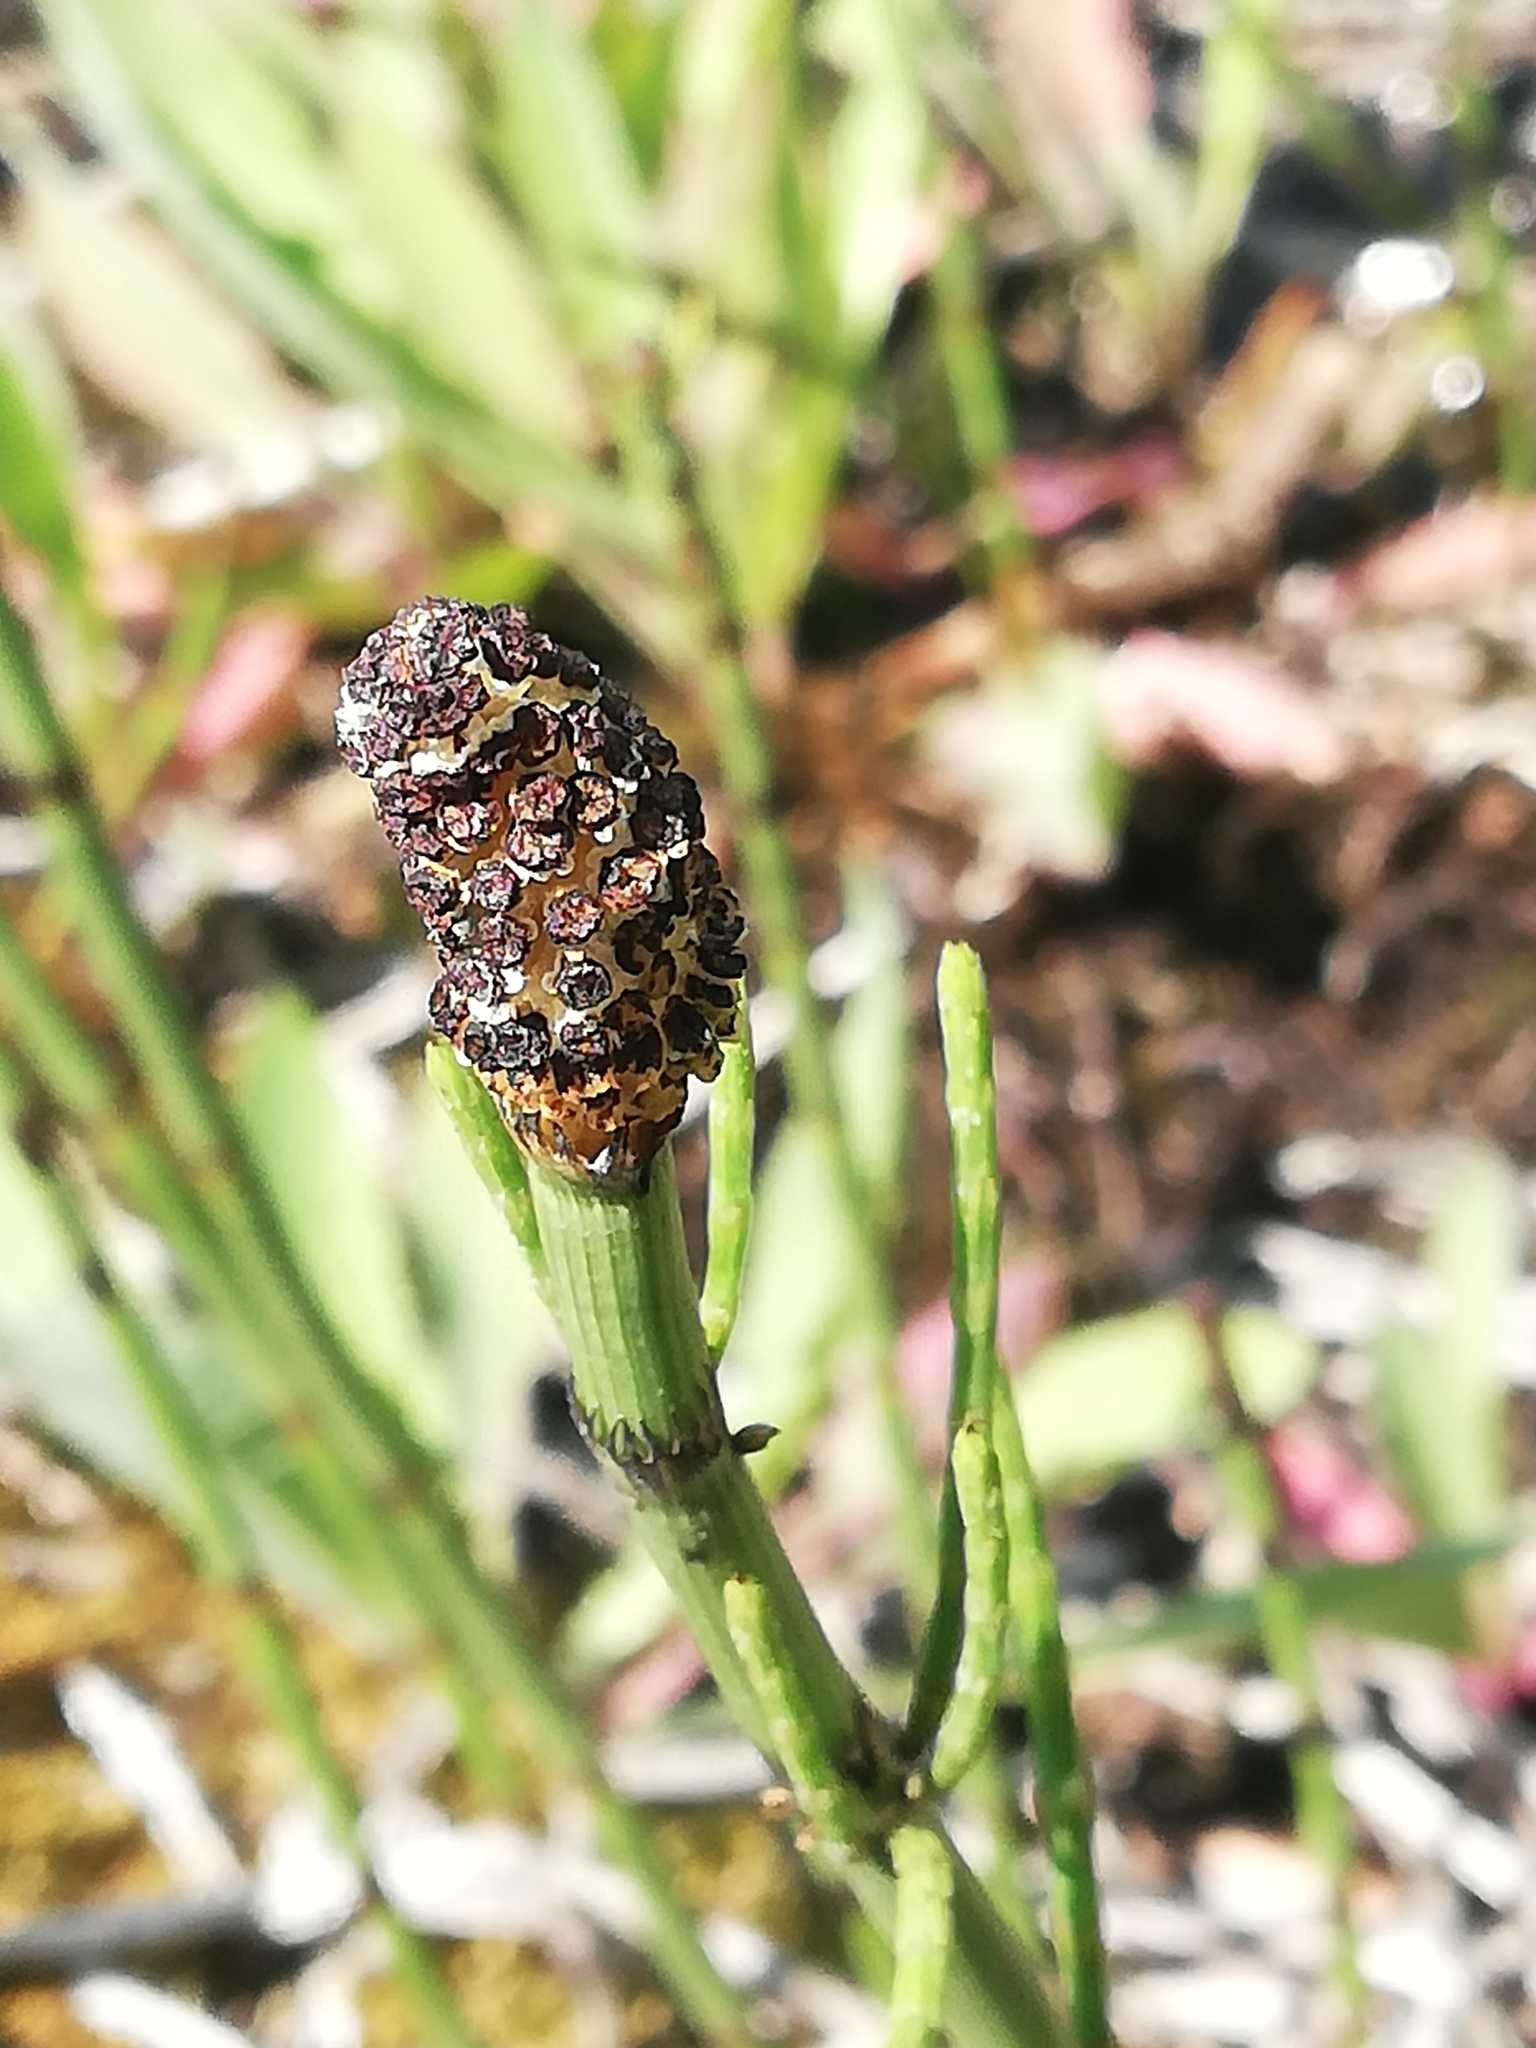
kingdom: Plantae
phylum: Tracheophyta
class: Polypodiopsida
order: Equisetales
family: Equisetaceae
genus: Equisetum
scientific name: Equisetum fluviatile
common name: Water horsetail
